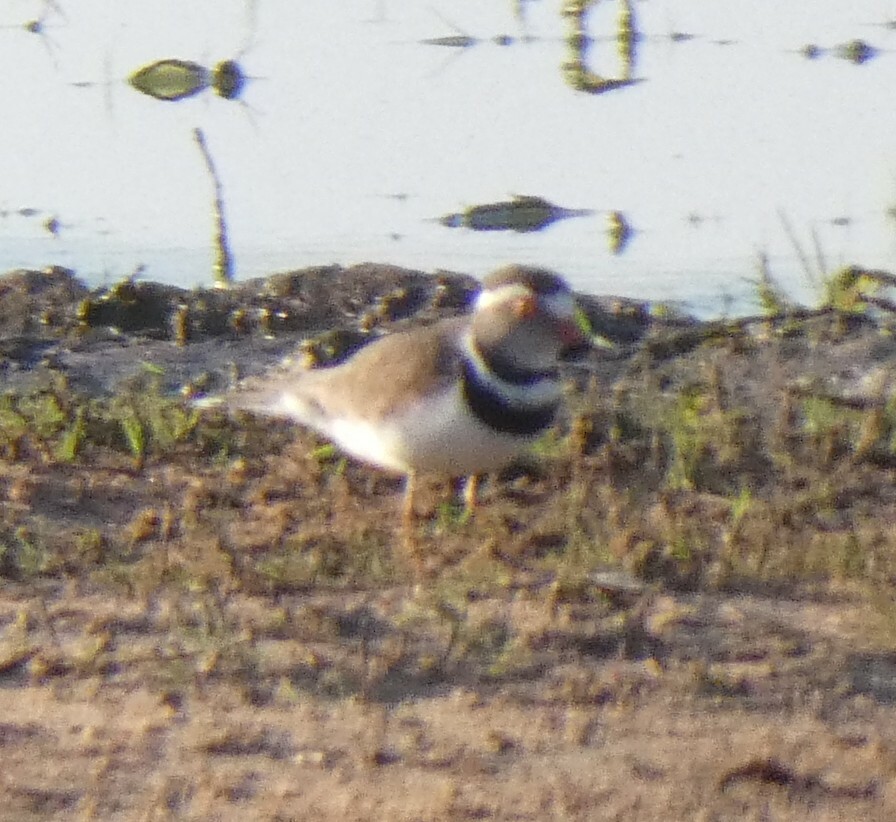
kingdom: Animalia
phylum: Chordata
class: Aves
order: Charadriiformes
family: Charadriidae
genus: Charadrius
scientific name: Charadrius tricollaris
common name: Three-banded plover
